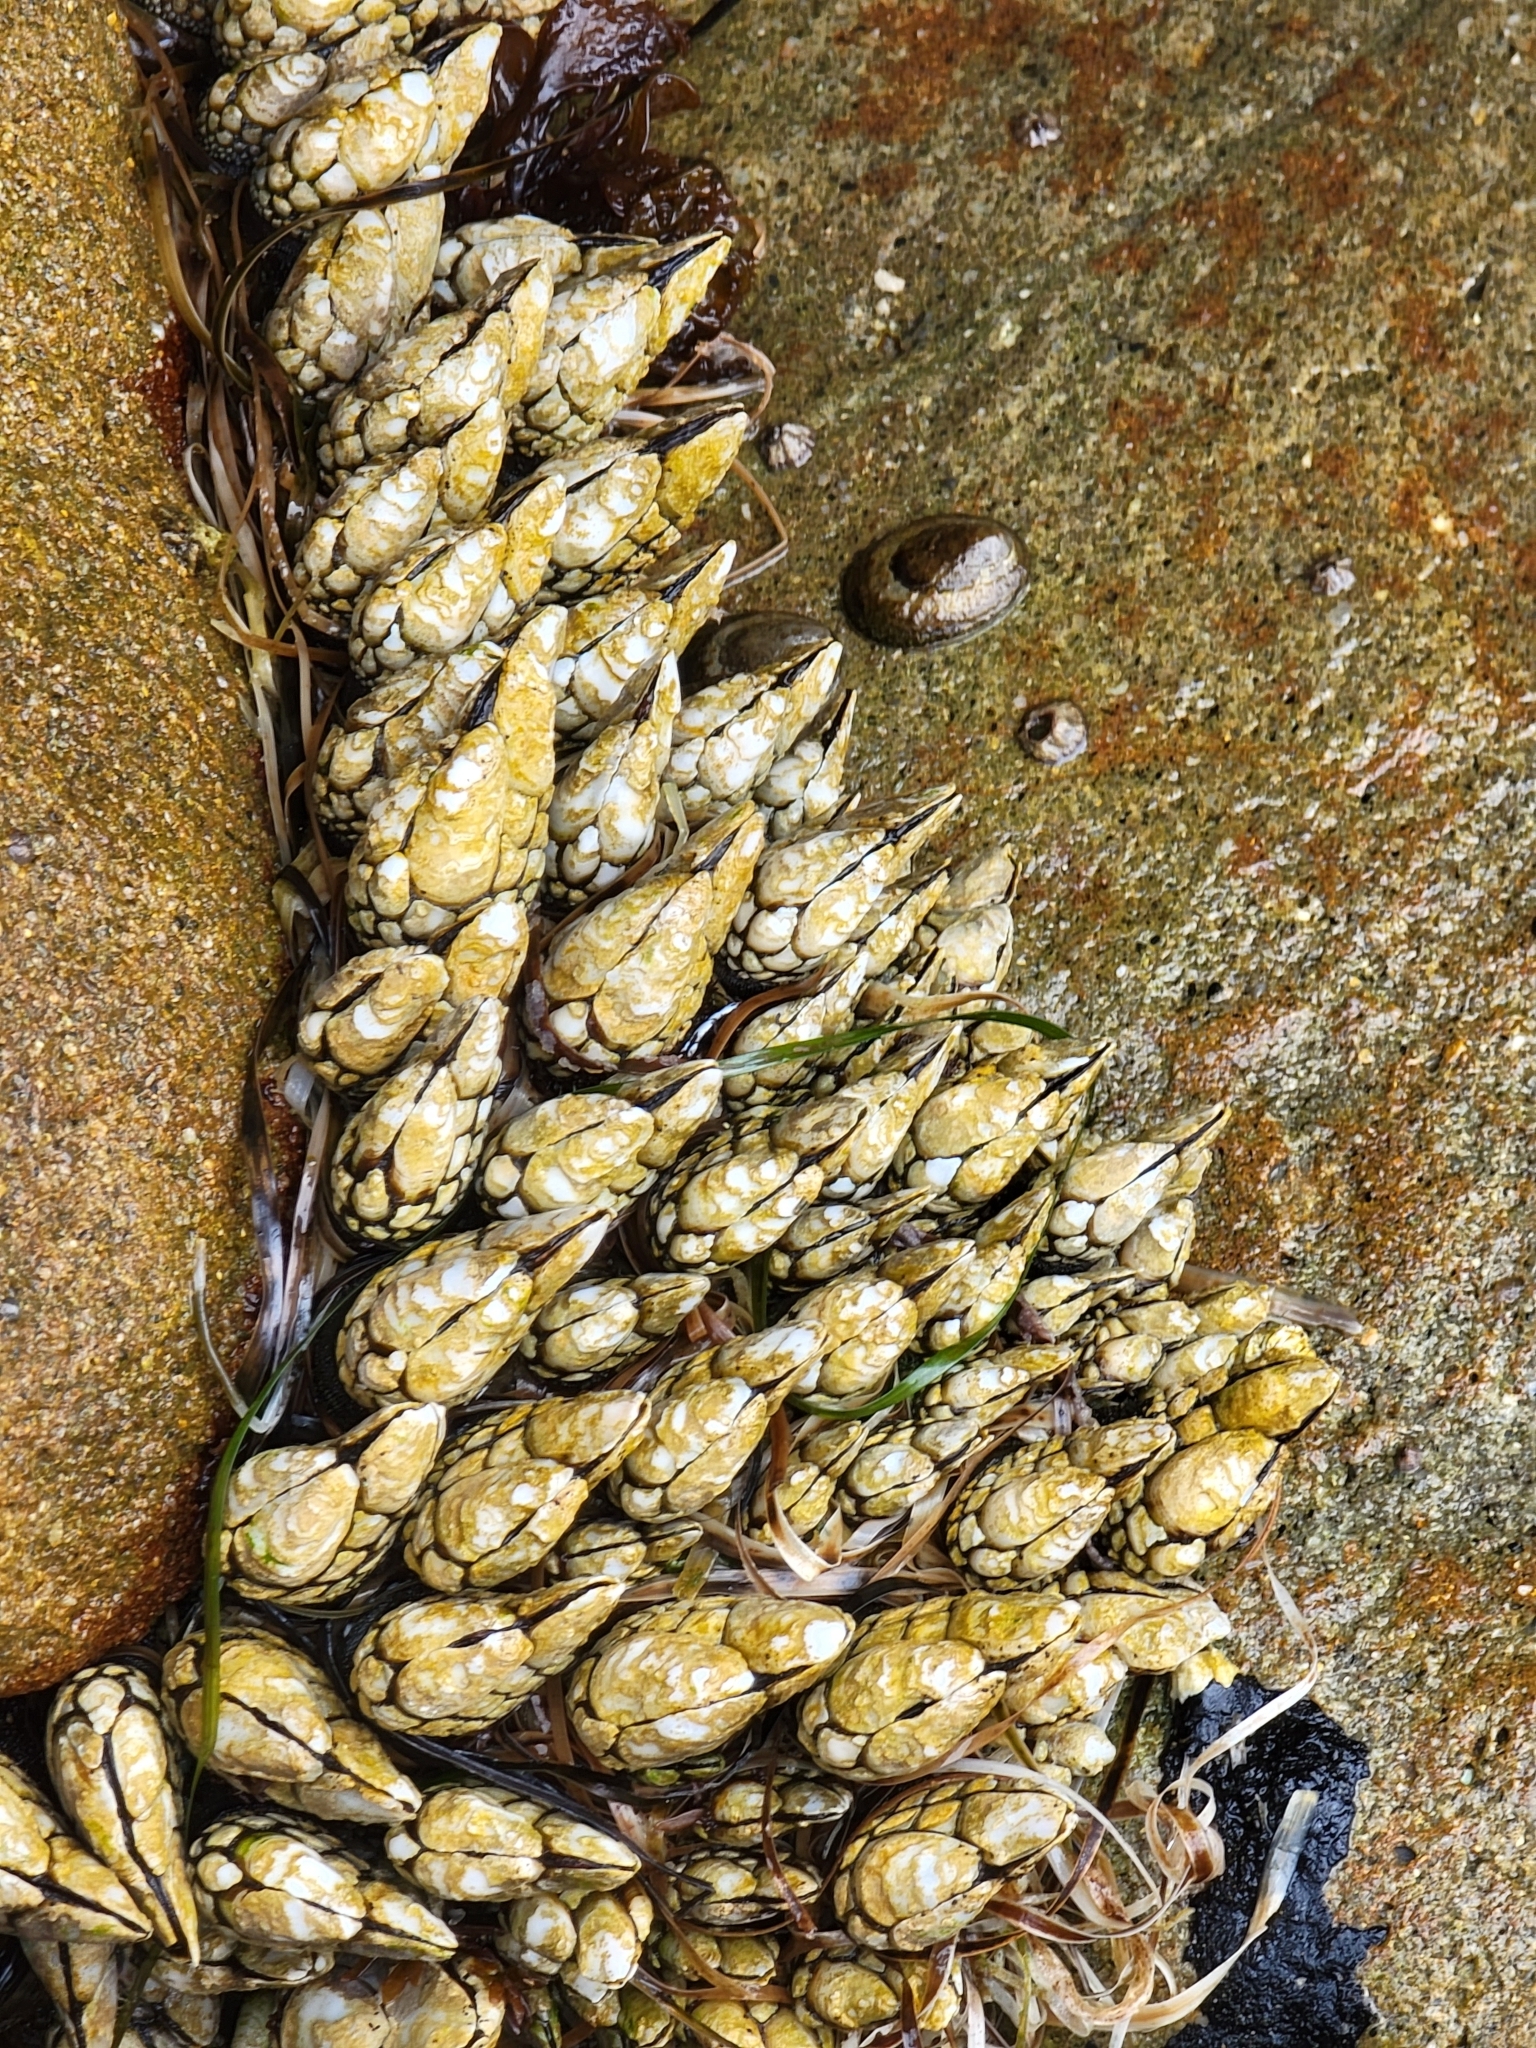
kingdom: Animalia
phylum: Arthropoda
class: Maxillopoda
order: Pedunculata
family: Pollicipedidae
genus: Pollicipes
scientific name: Pollicipes polymerus
